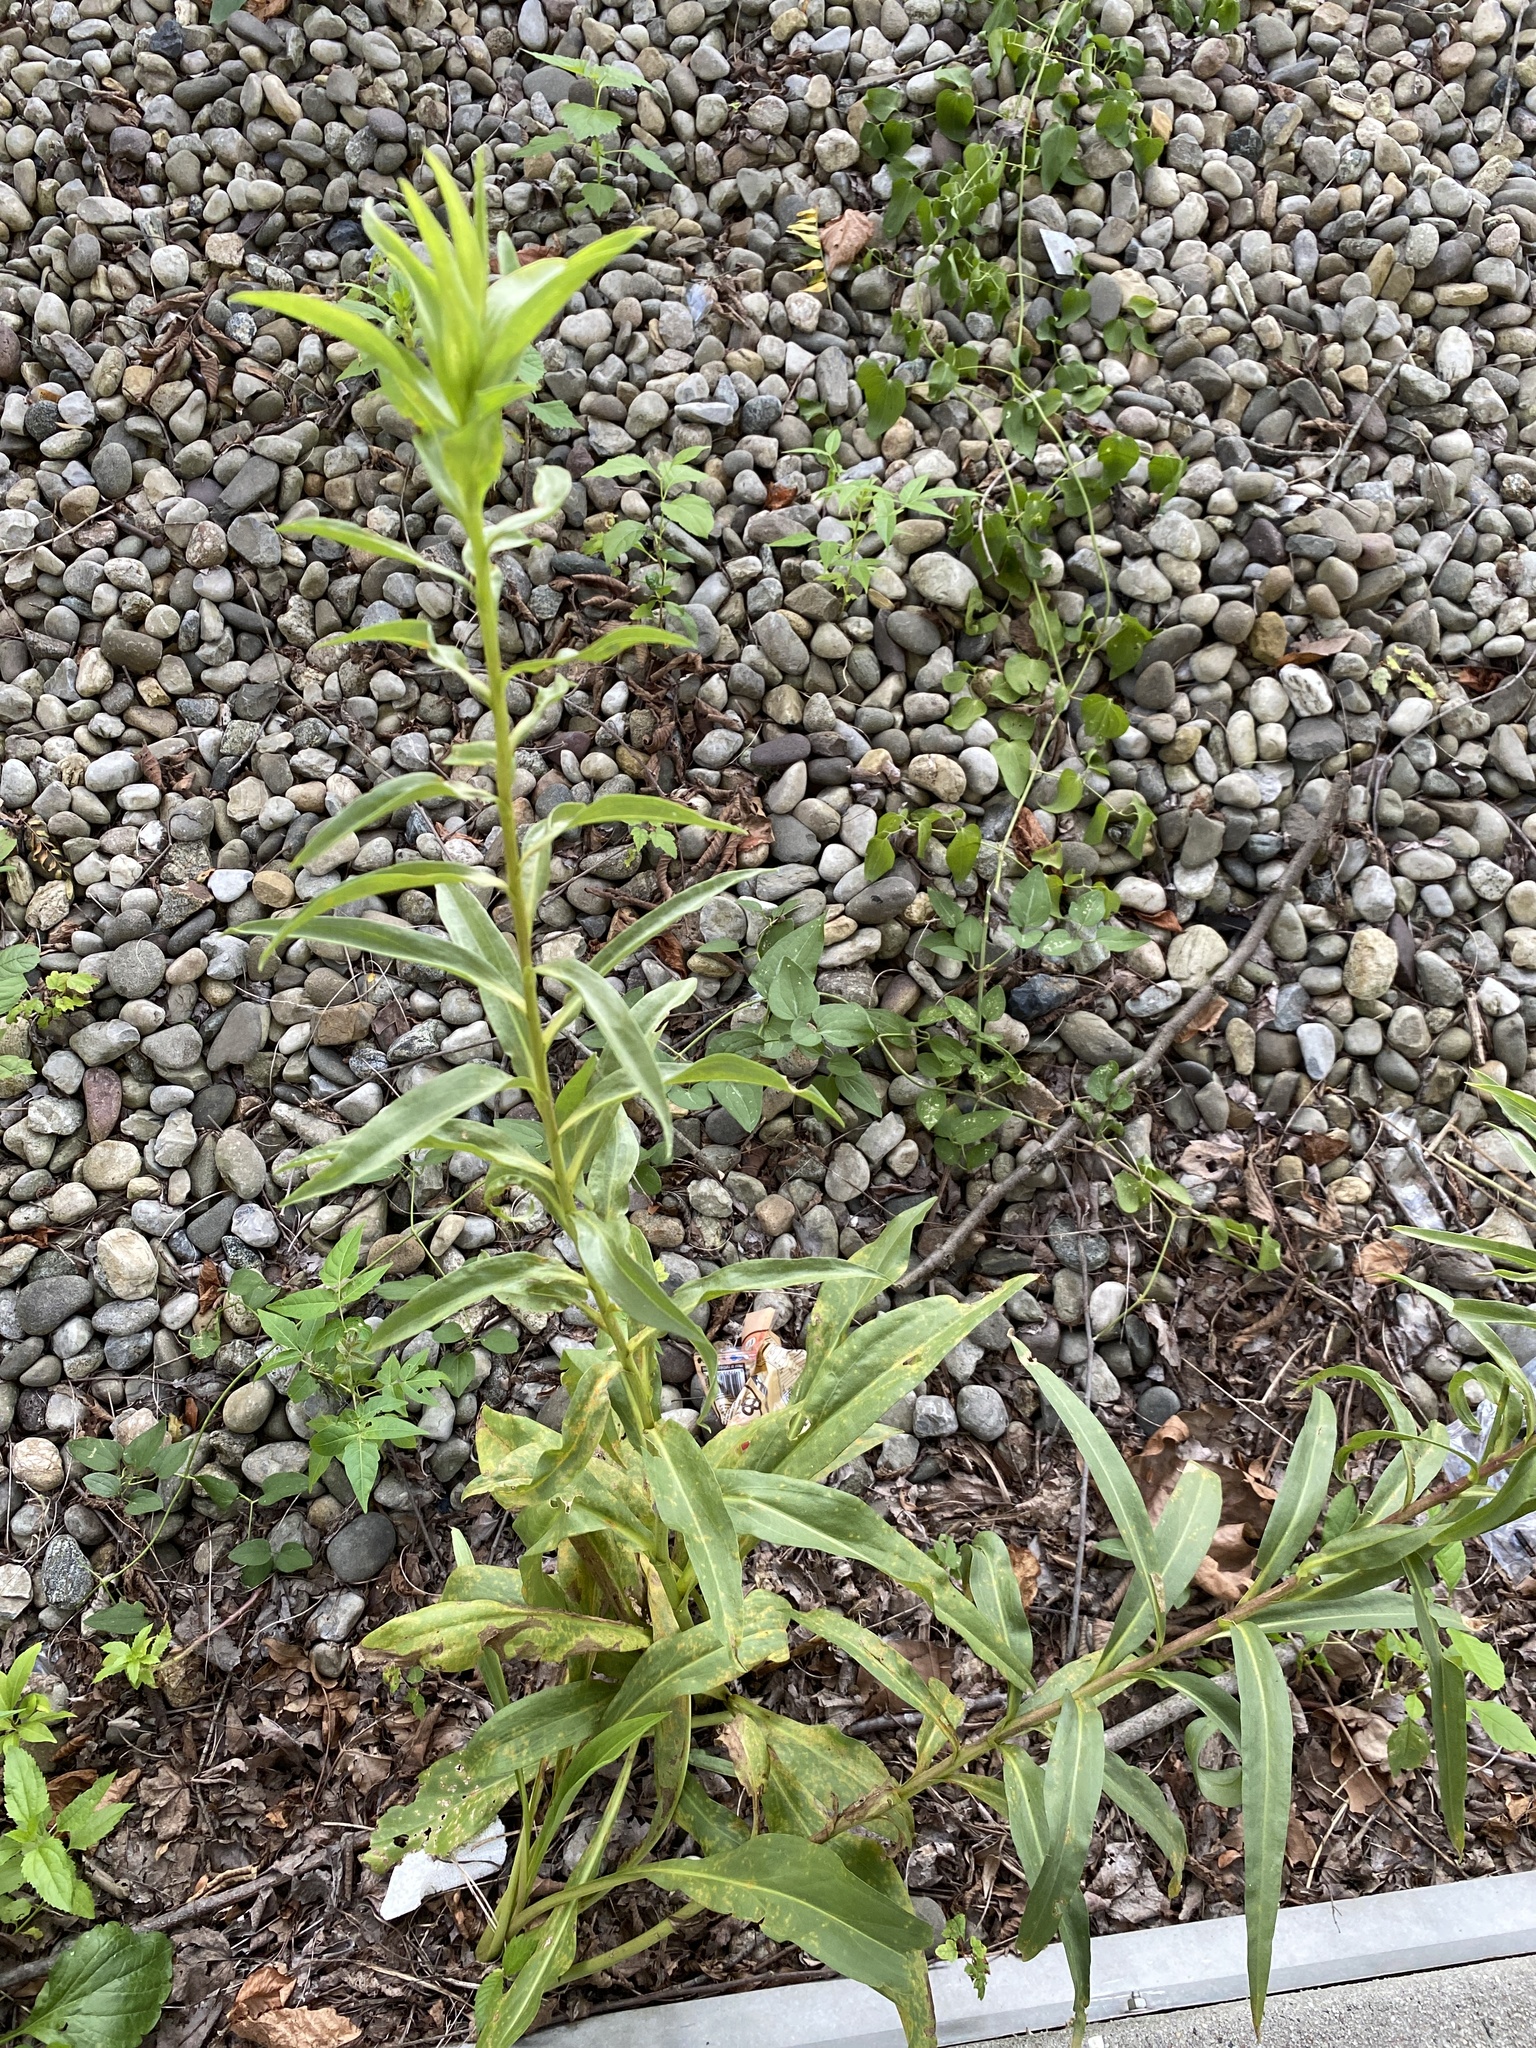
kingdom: Plantae
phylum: Tracheophyta
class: Magnoliopsida
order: Asterales
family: Asteraceae
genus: Solidago
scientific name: Solidago sempervirens
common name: Salt-marsh goldenrod
